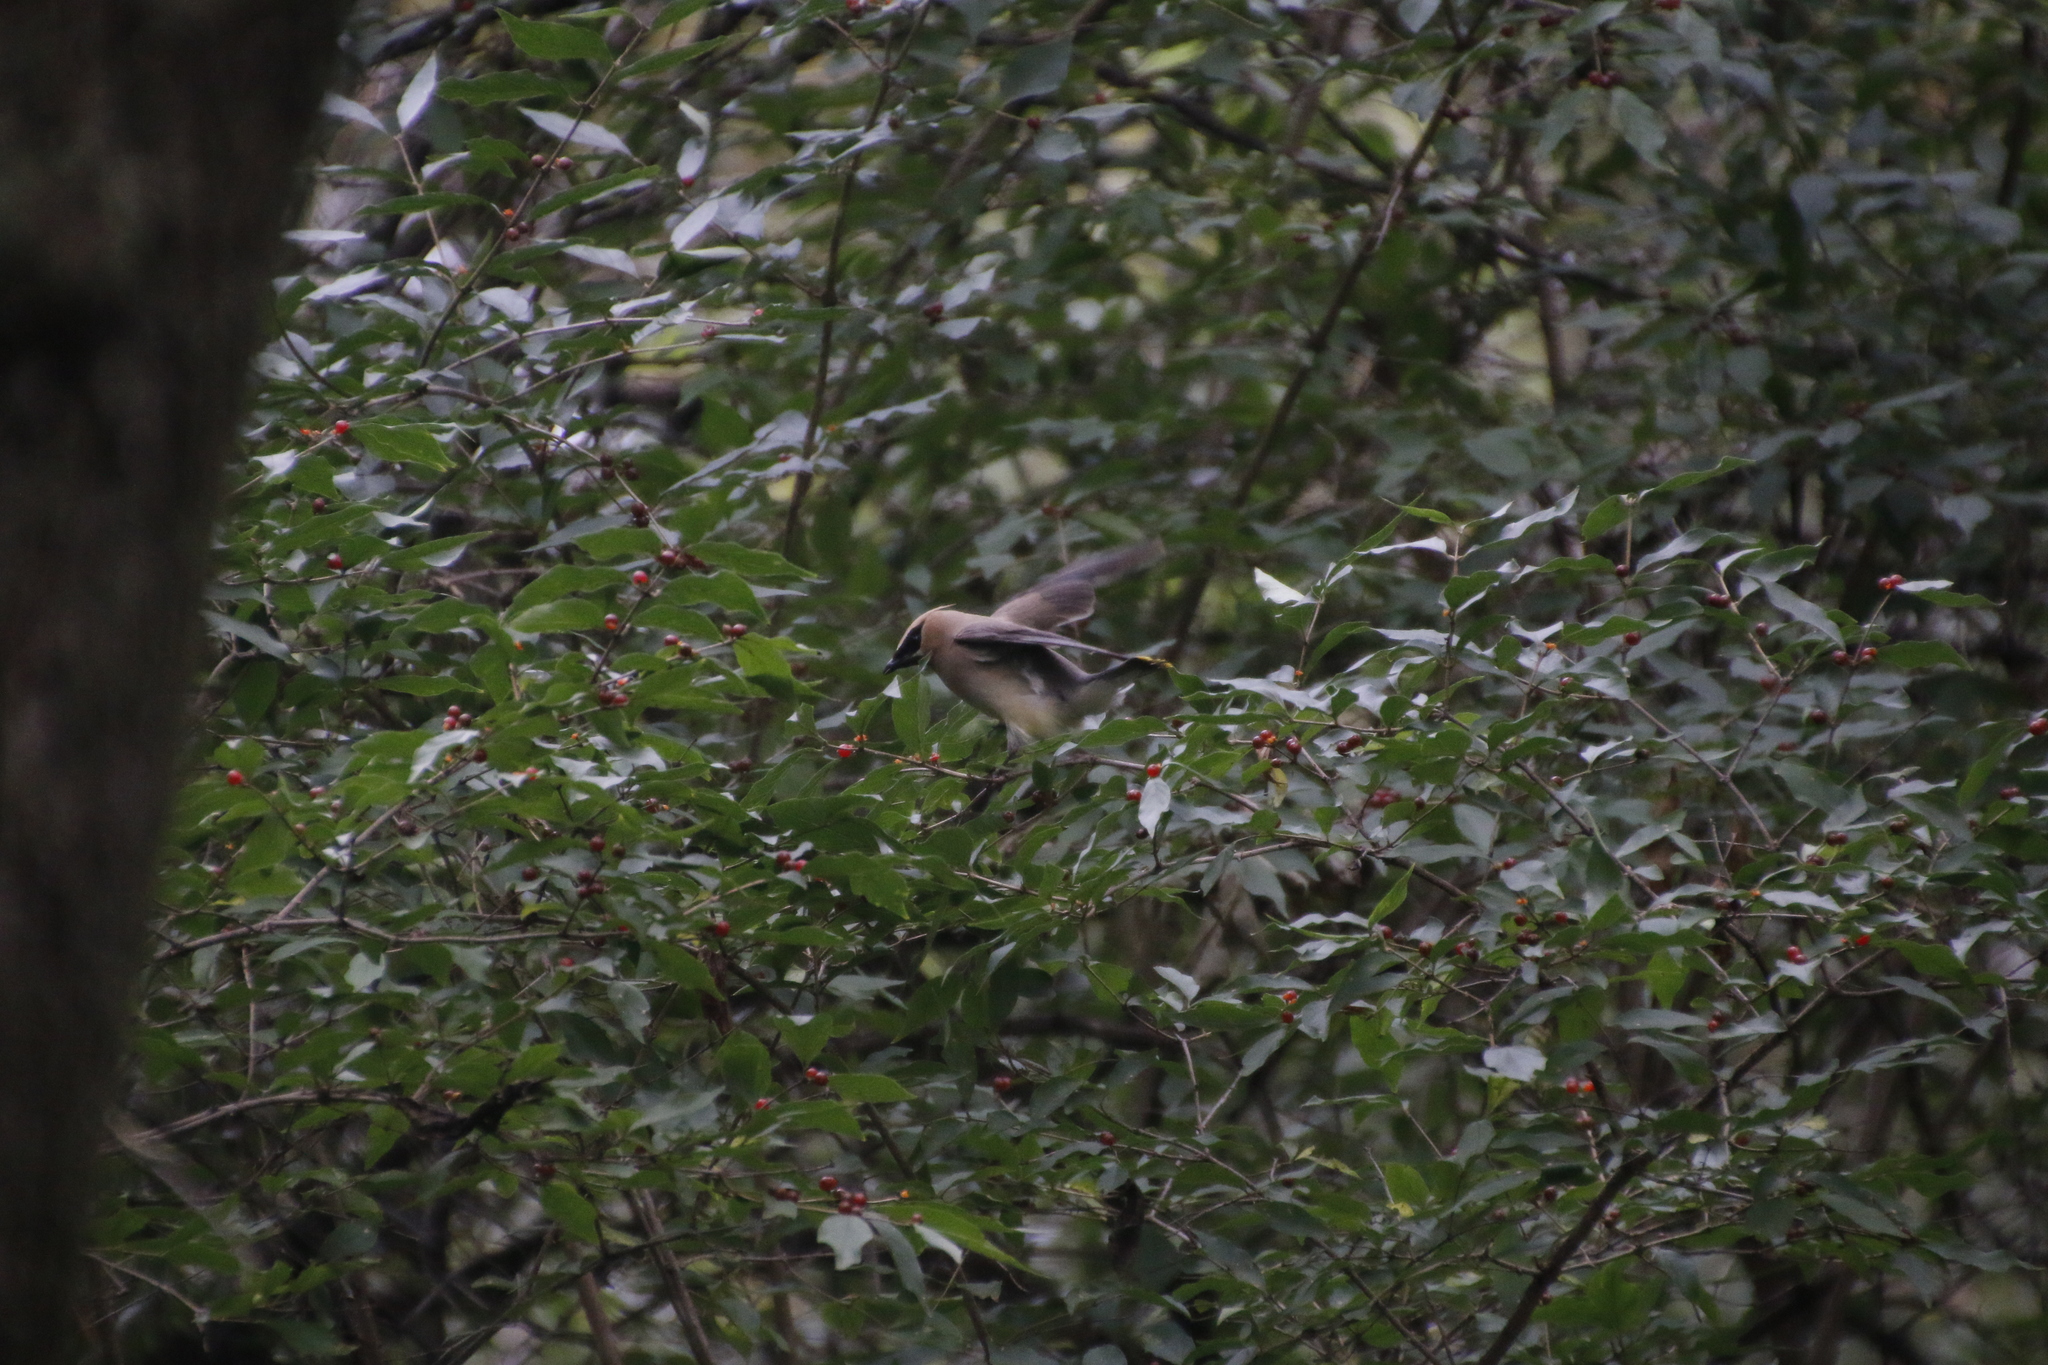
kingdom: Animalia
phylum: Chordata
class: Aves
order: Passeriformes
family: Bombycillidae
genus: Bombycilla
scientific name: Bombycilla cedrorum
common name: Cedar waxwing
